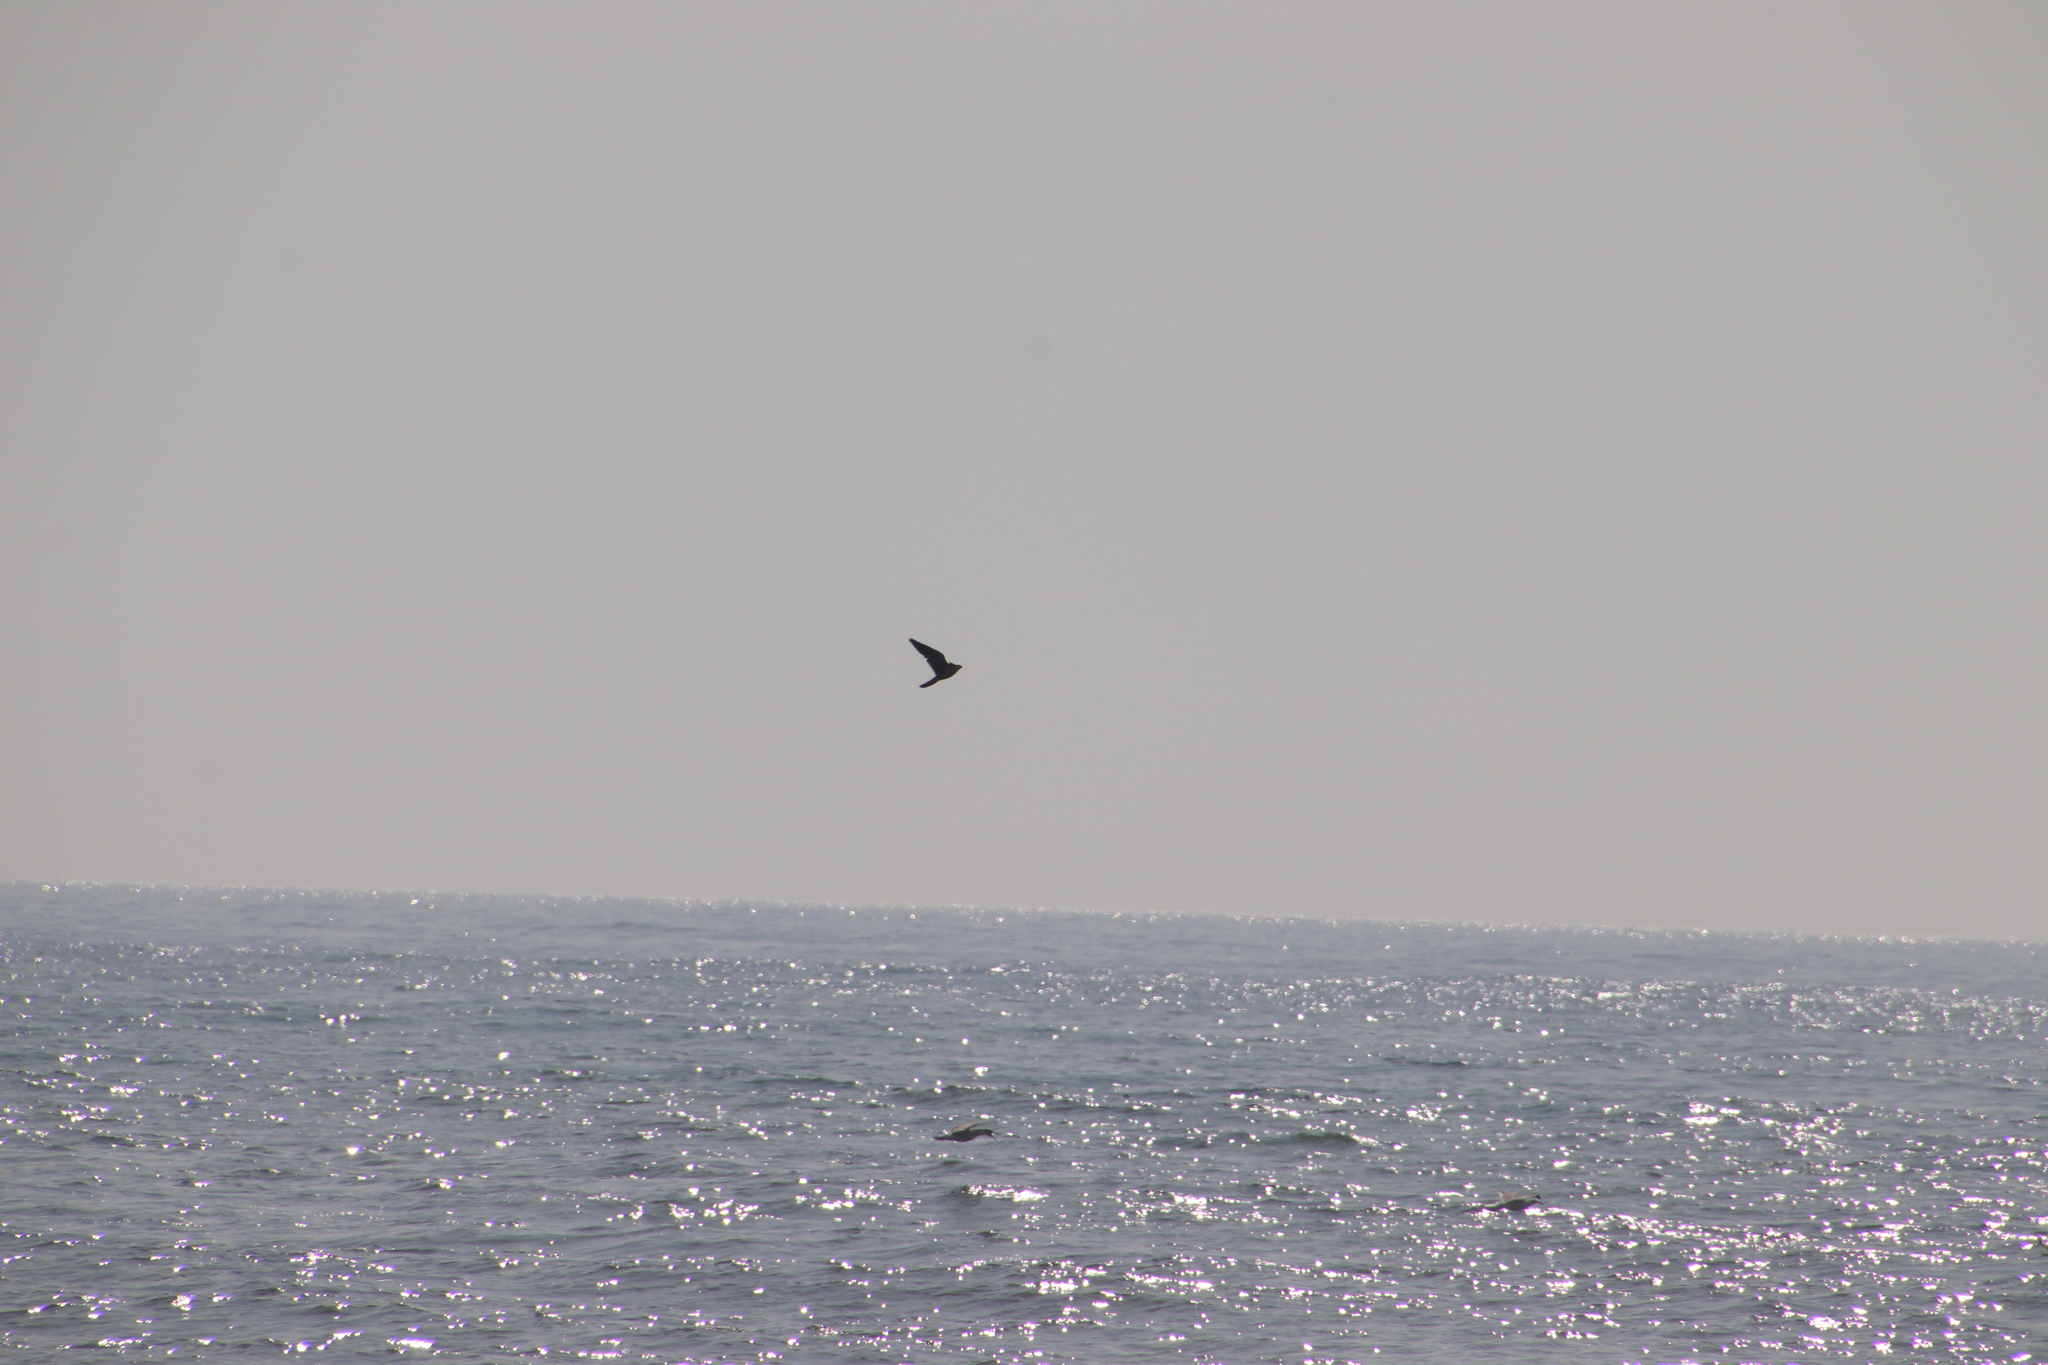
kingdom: Animalia
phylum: Chordata
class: Aves
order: Falconiformes
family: Falconidae
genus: Falco
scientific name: Falco peregrinus
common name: Peregrine falcon
